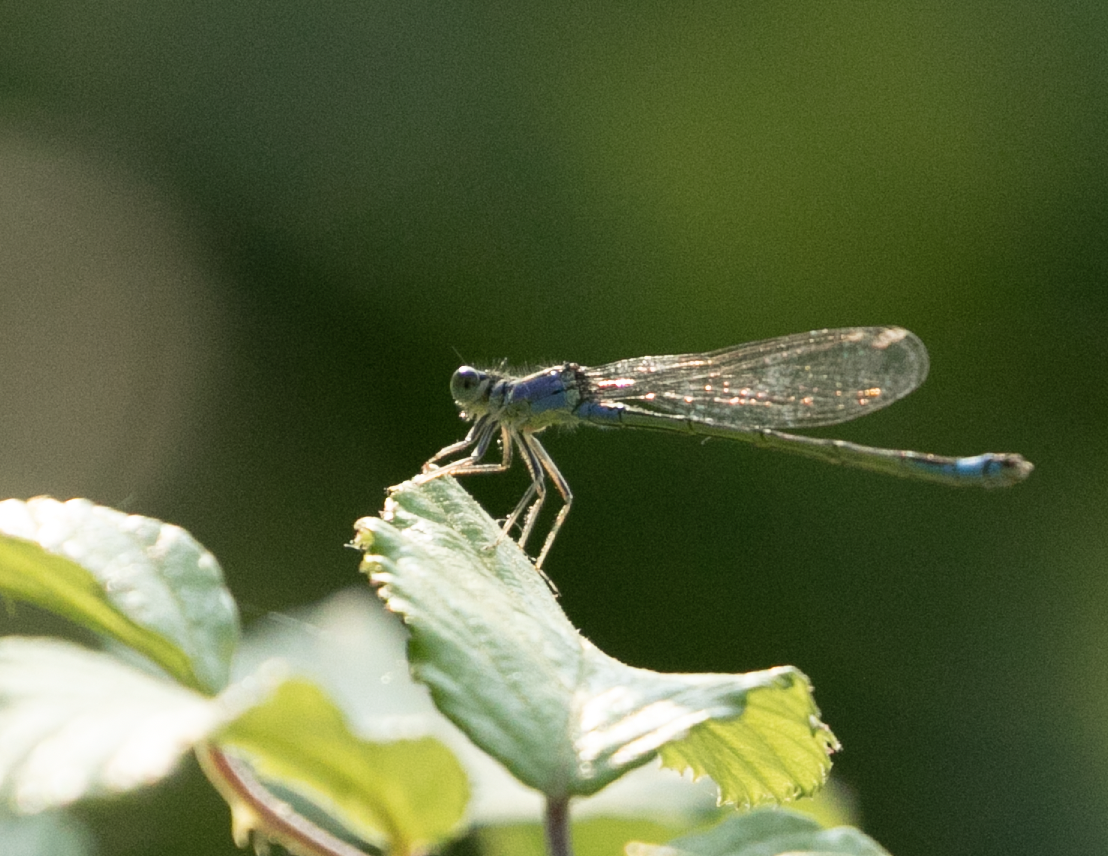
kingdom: Animalia
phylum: Arthropoda
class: Insecta
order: Odonata
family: Coenagrionidae
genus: Ischnura
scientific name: Ischnura elegans
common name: Blue-tailed damselfly
